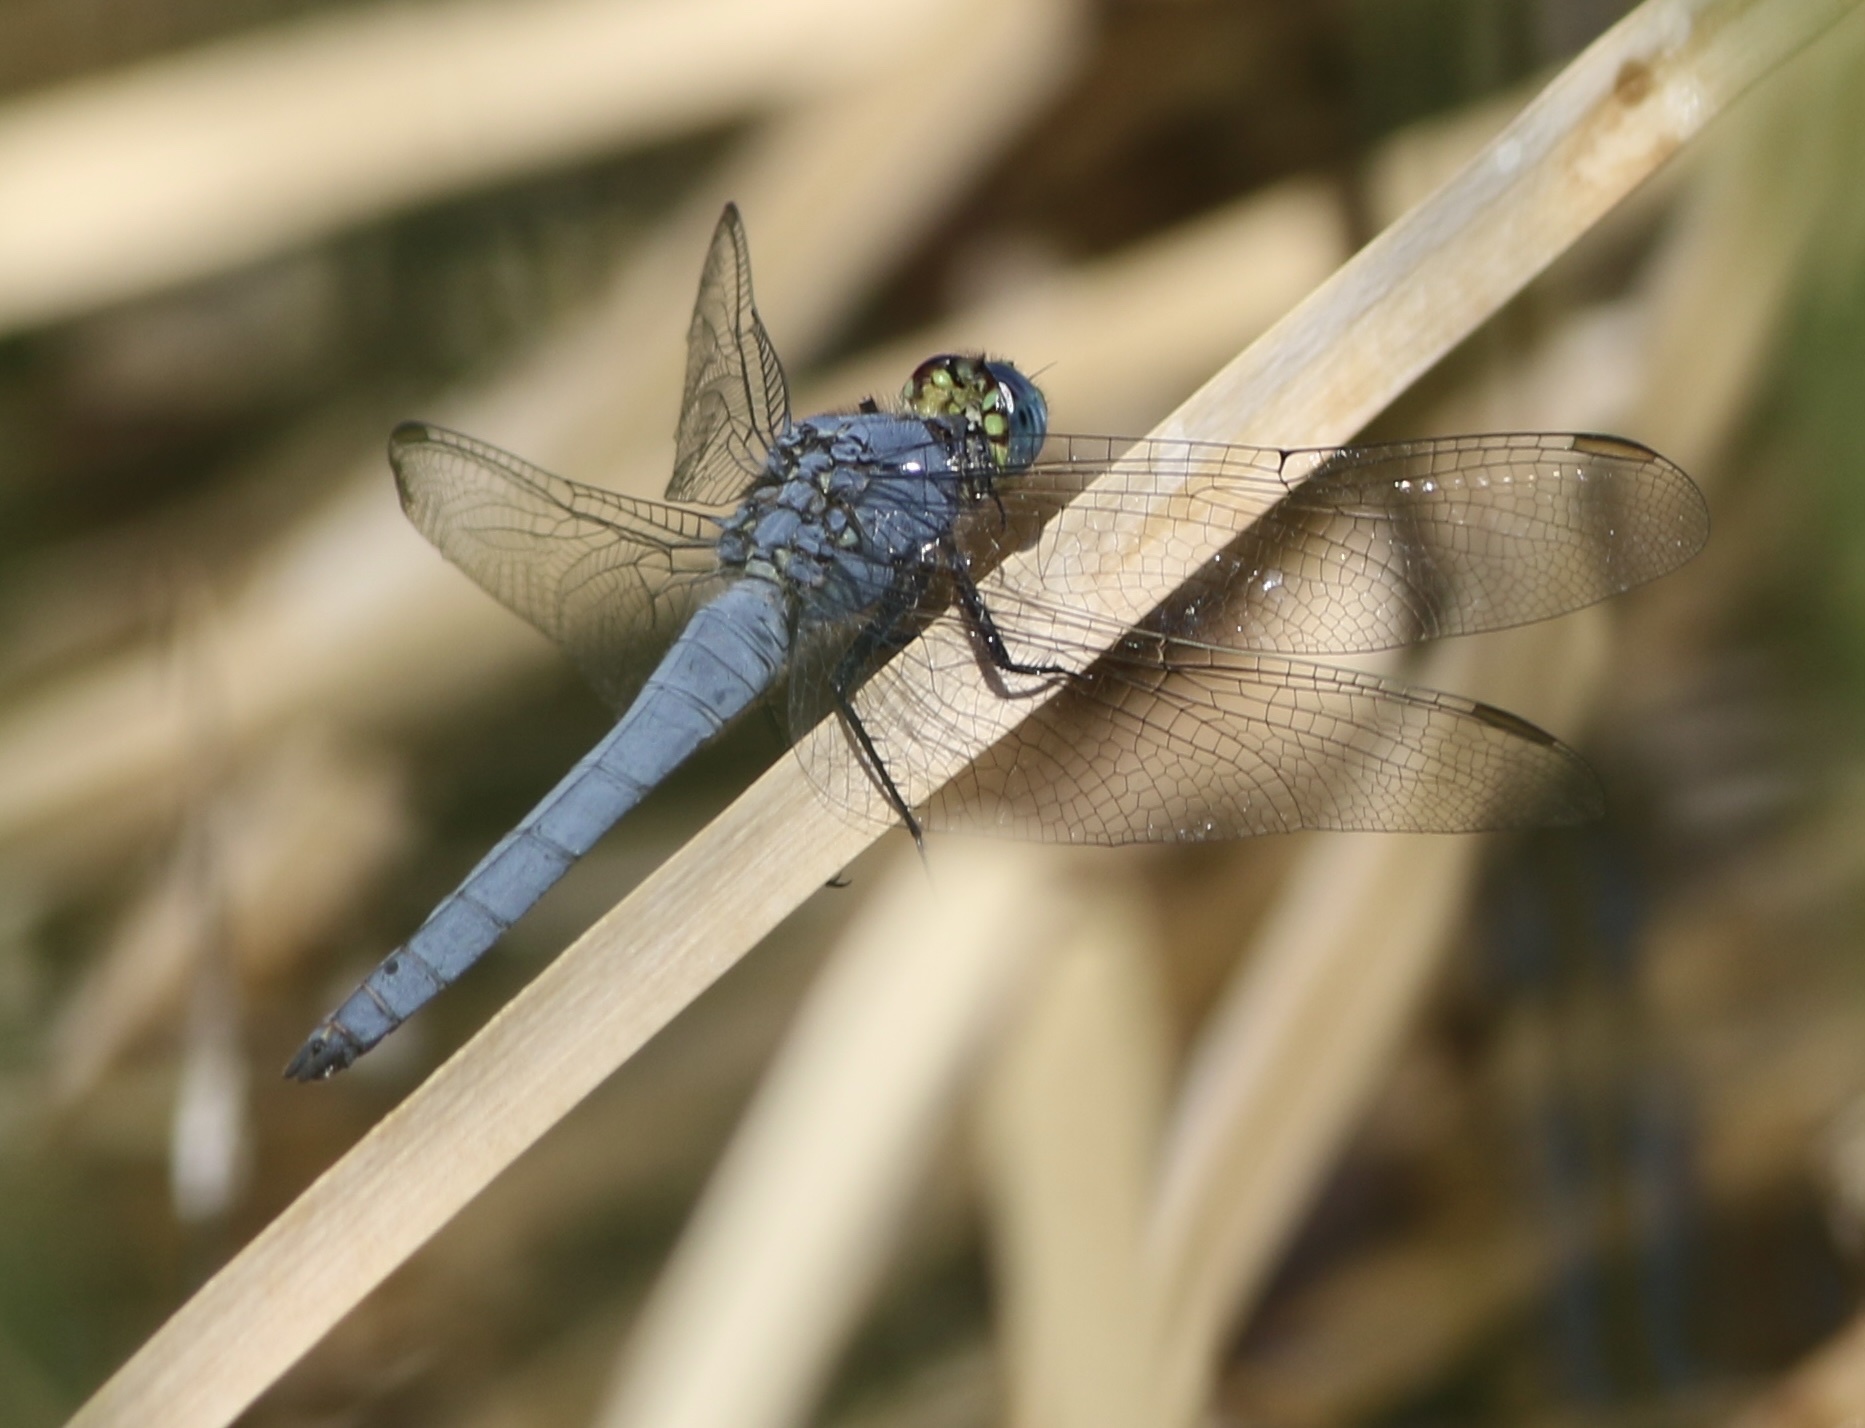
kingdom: Animalia
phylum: Arthropoda
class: Insecta
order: Odonata
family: Libellulidae
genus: Erythemis
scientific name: Erythemis collocata
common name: Western pondhawk
